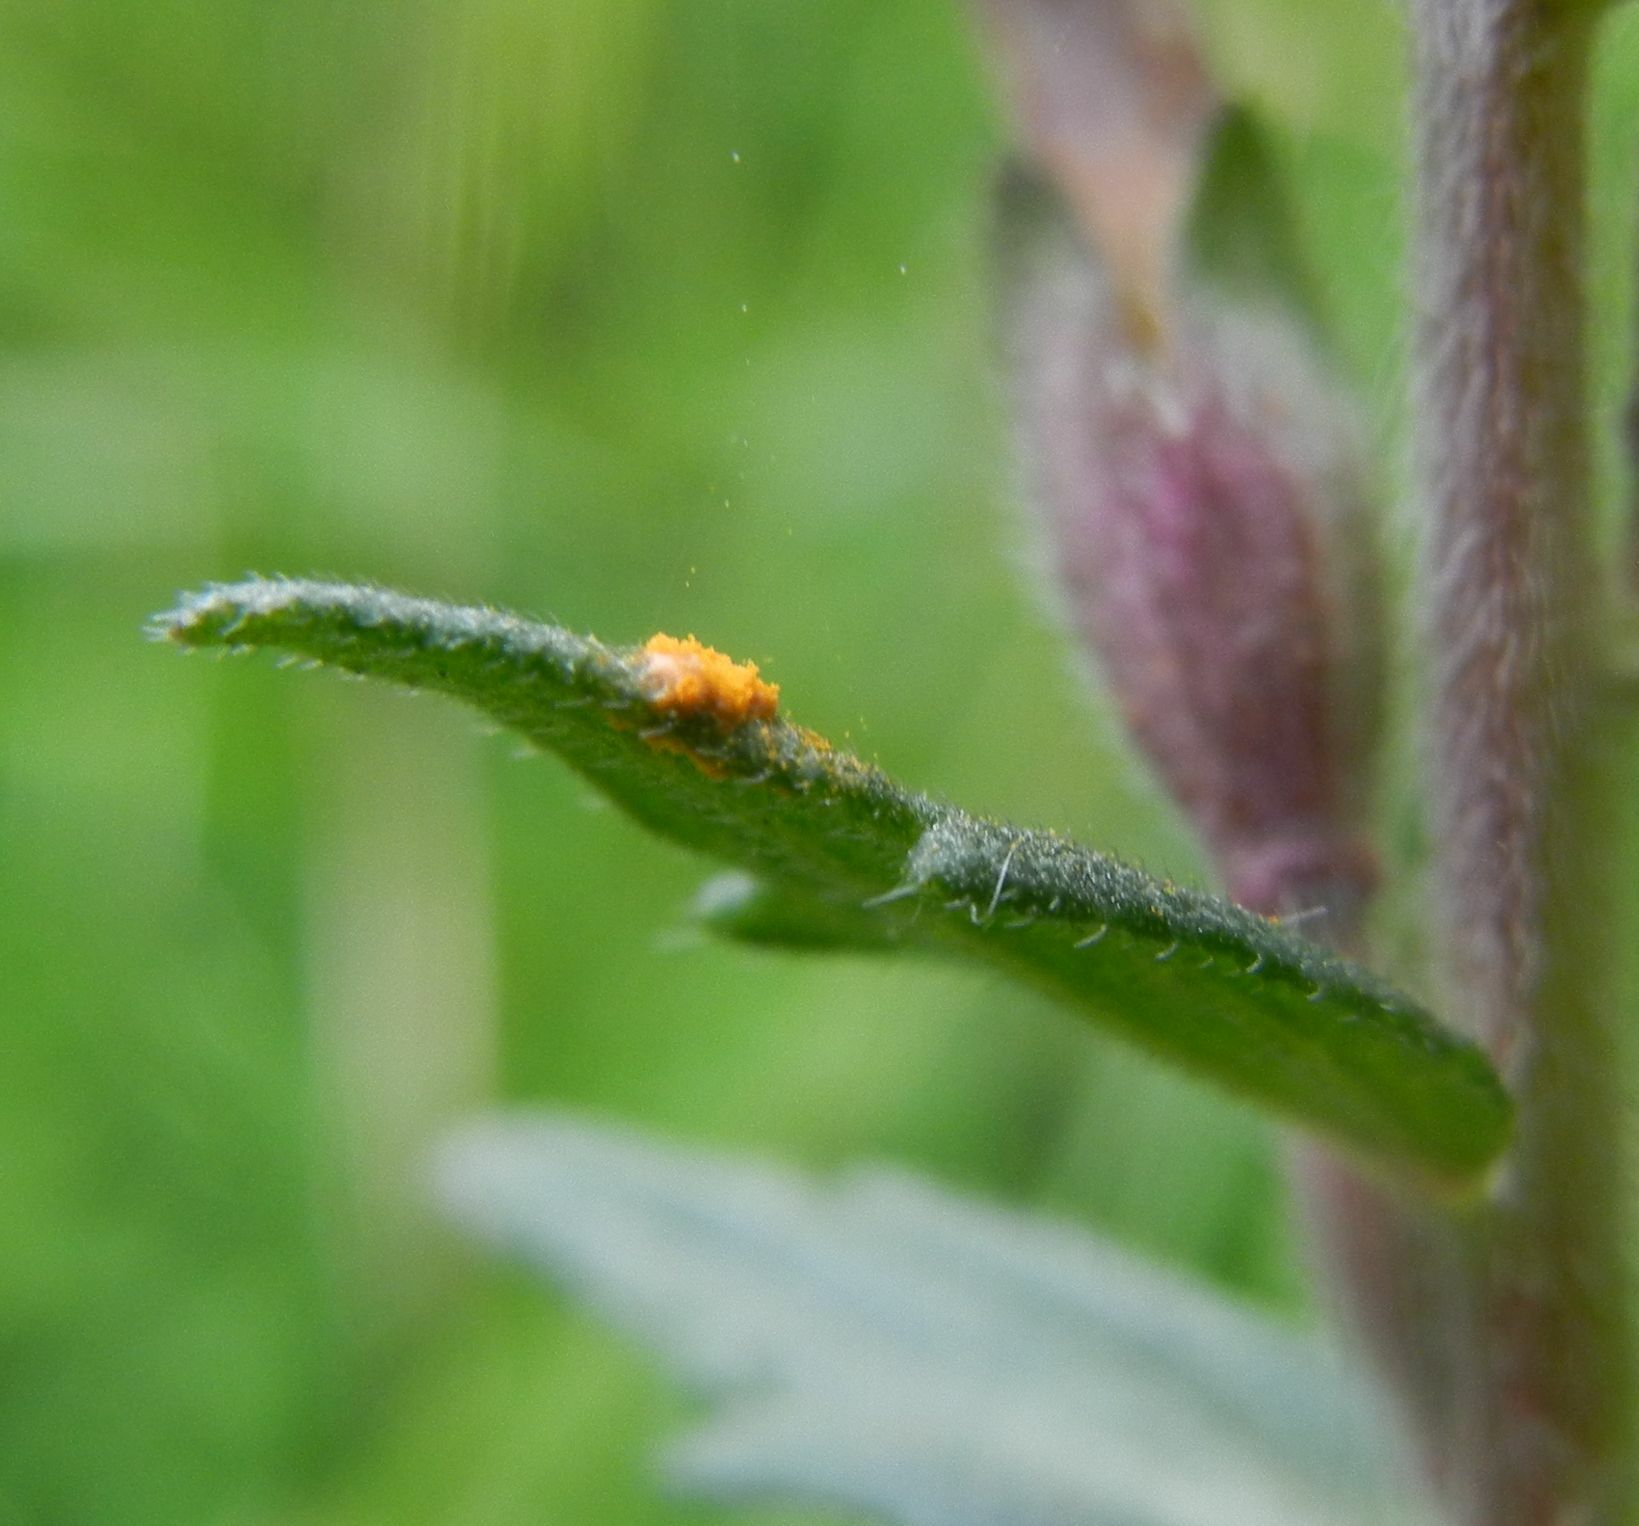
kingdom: Fungi
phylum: Basidiomycota
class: Pucciniomycetes
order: Pucciniales
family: Coleosporiaceae
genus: Coleosporium
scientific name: Coleosporium euphrasiae
